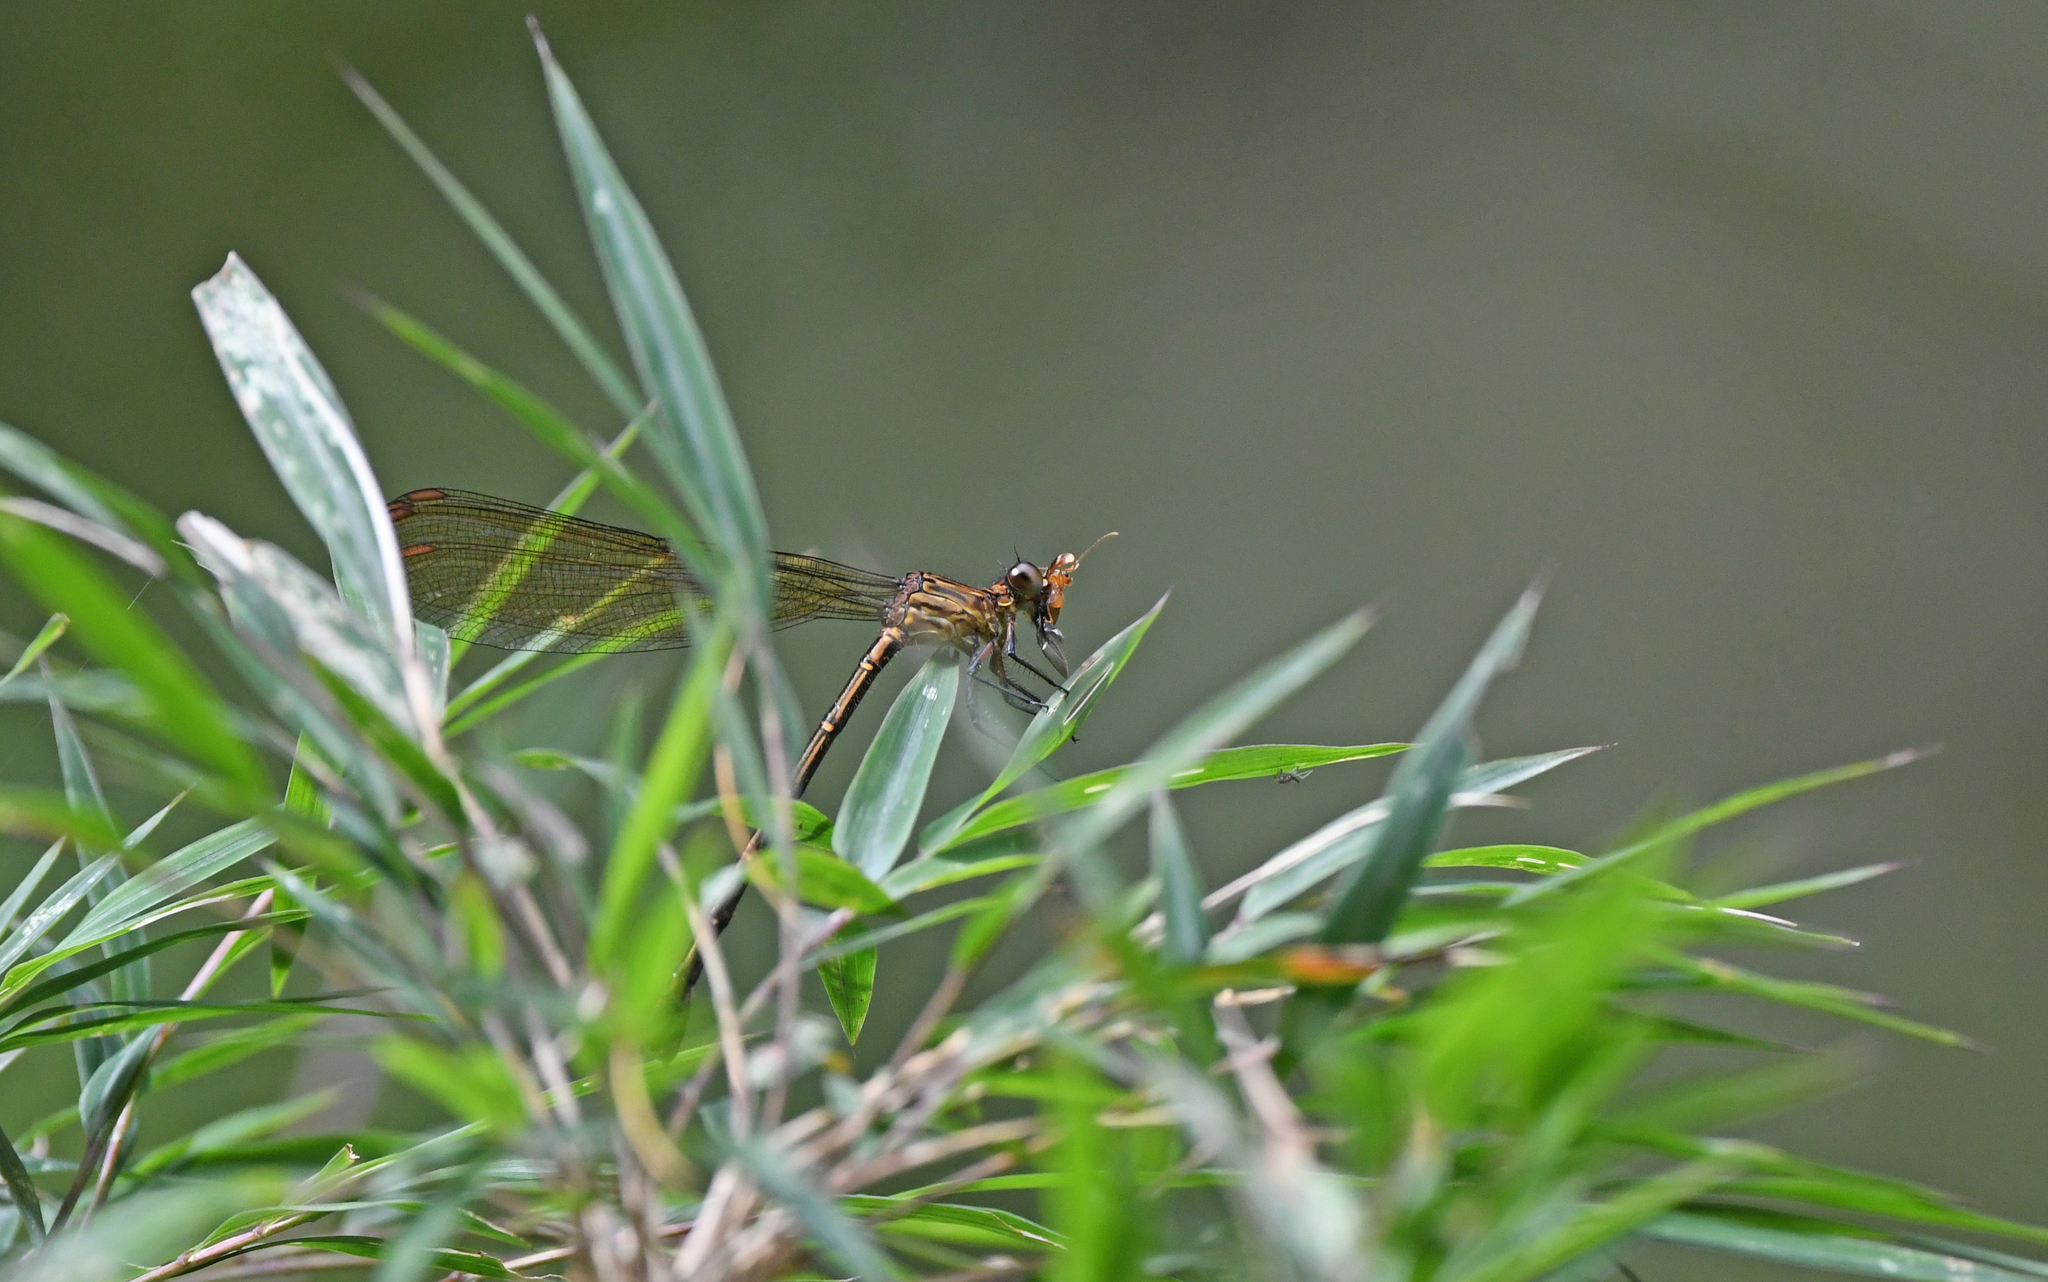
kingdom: Animalia
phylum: Arthropoda
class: Insecta
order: Odonata
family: Polythoridae
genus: Euthore
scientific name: Euthore terminalis
